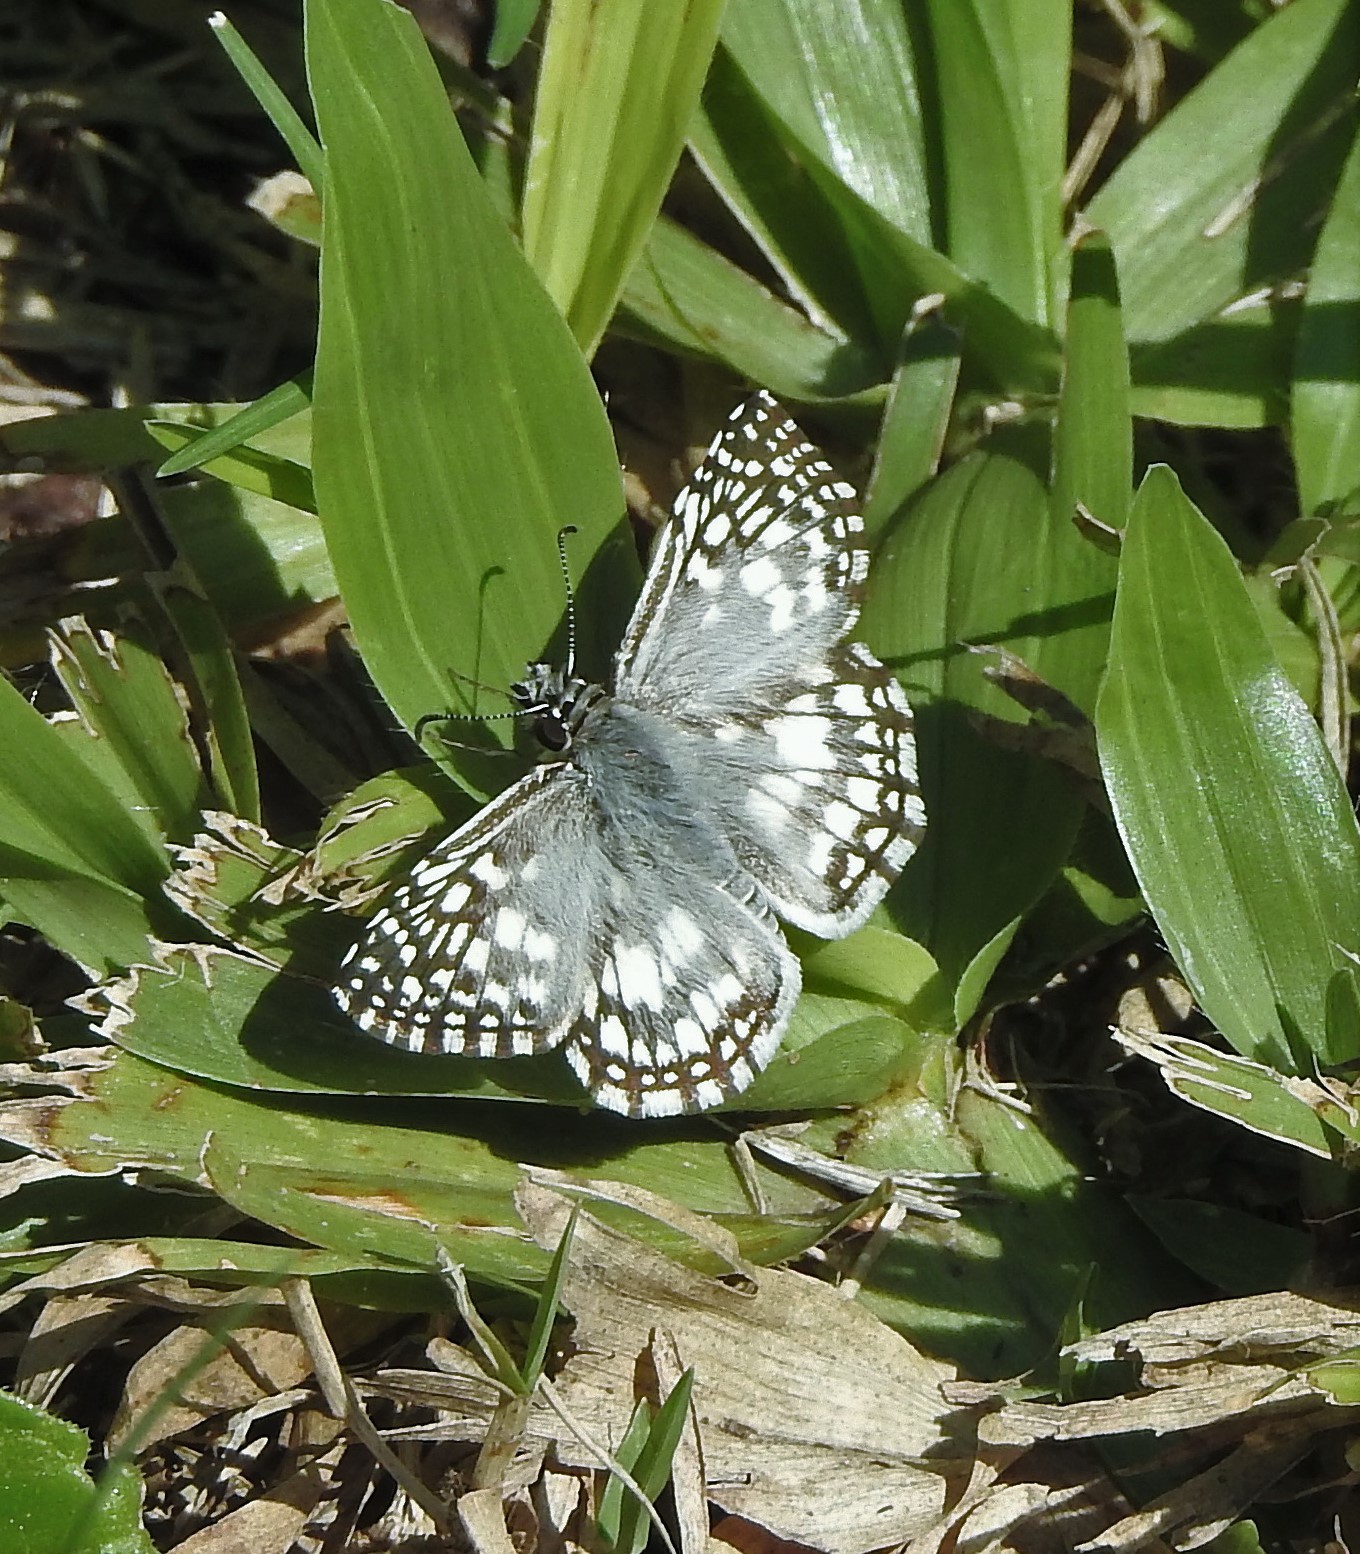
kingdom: Animalia
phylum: Arthropoda
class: Insecta
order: Lepidoptera
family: Hesperiidae
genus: Pyrgus
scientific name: Pyrgus oileus
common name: Tropical checkered-skipper
